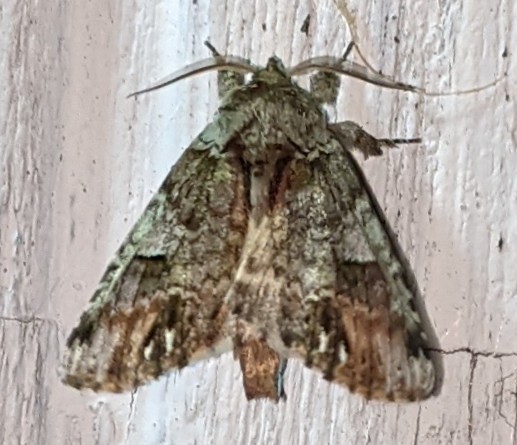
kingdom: Animalia
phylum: Arthropoda
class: Insecta
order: Lepidoptera
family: Notodontidae
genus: Schizura
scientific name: Schizura
